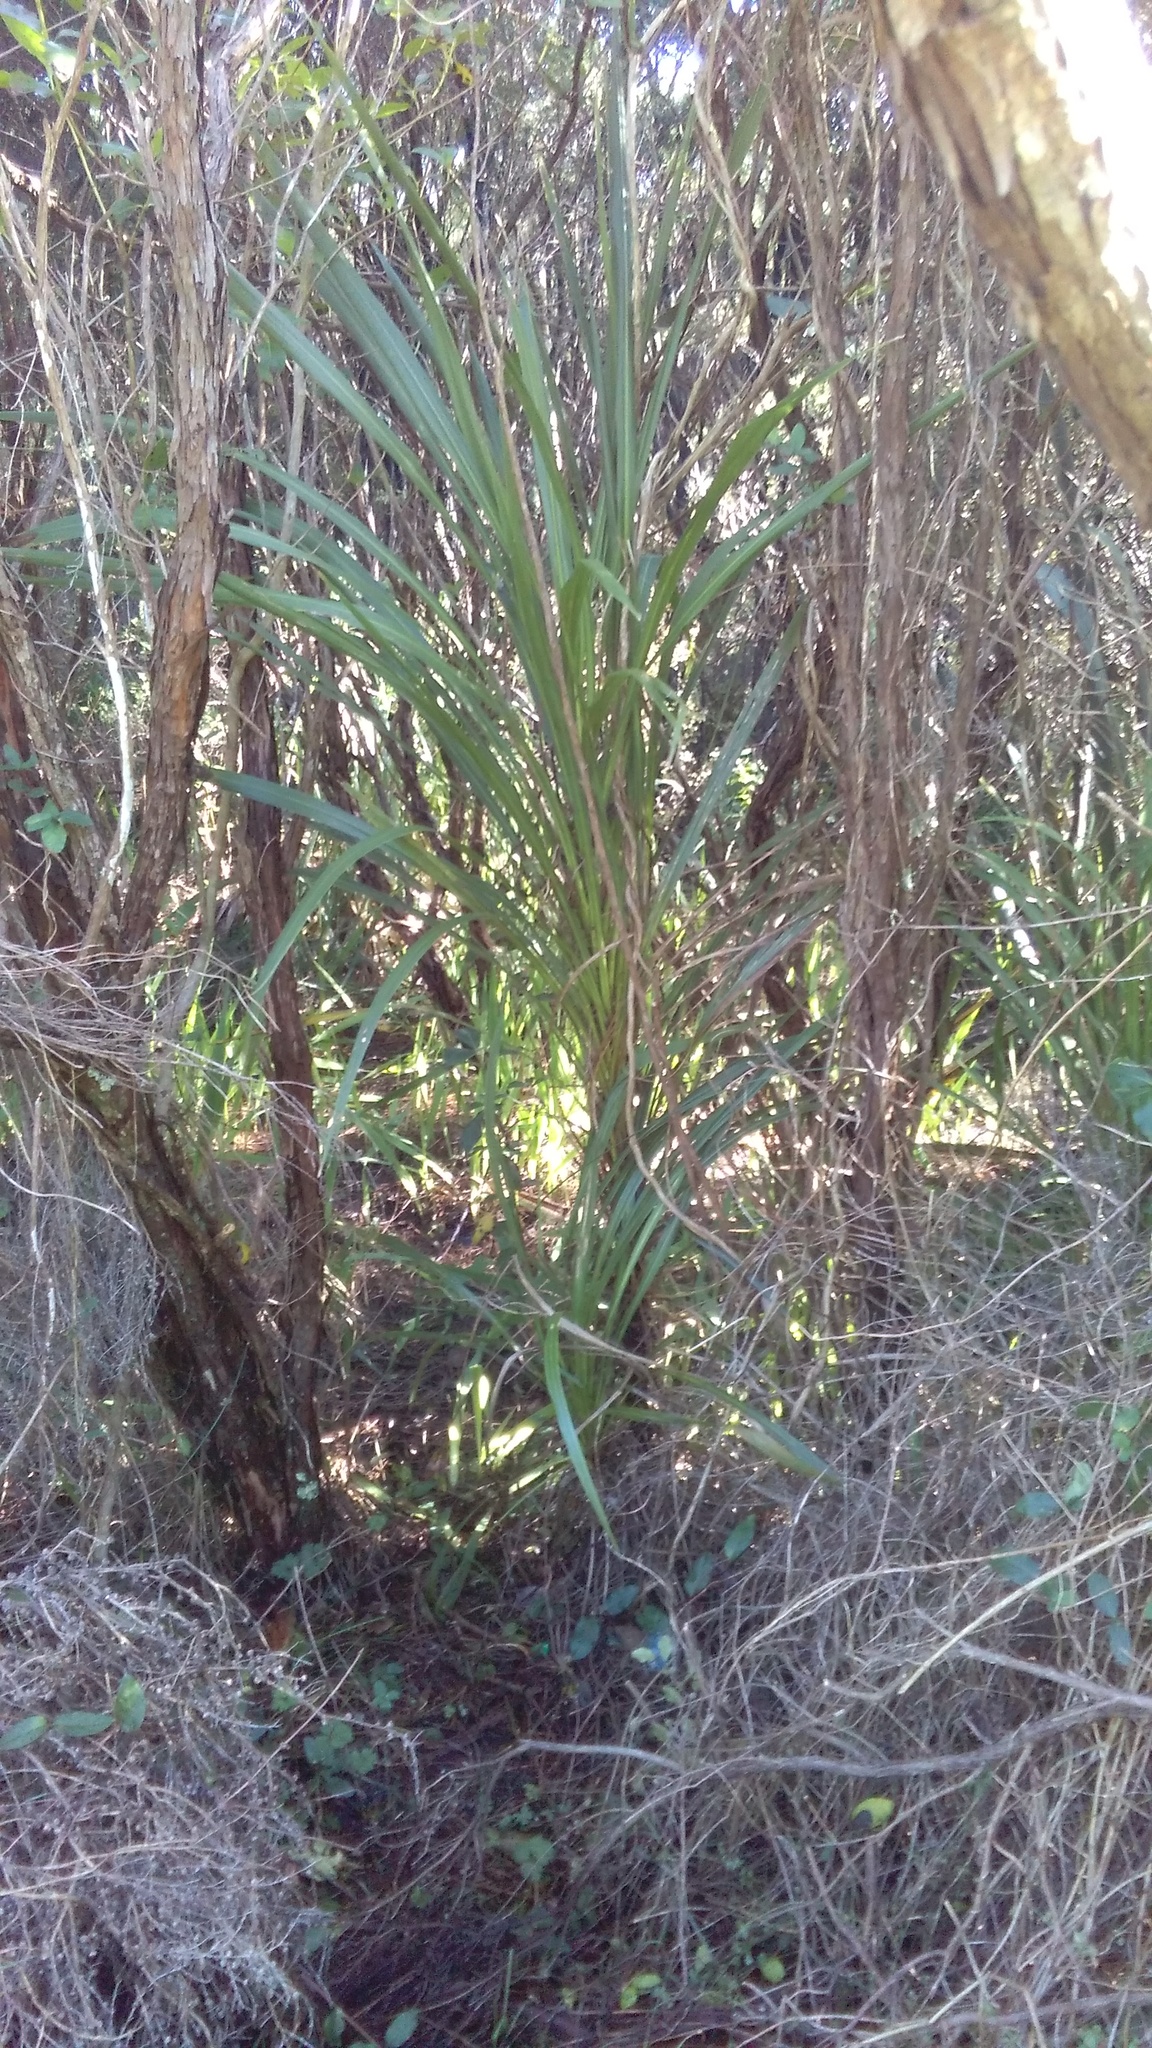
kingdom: Plantae
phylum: Tracheophyta
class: Liliopsida
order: Asparagales
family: Asparagaceae
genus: Cordyline
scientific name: Cordyline australis
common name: Cabbage-palm
